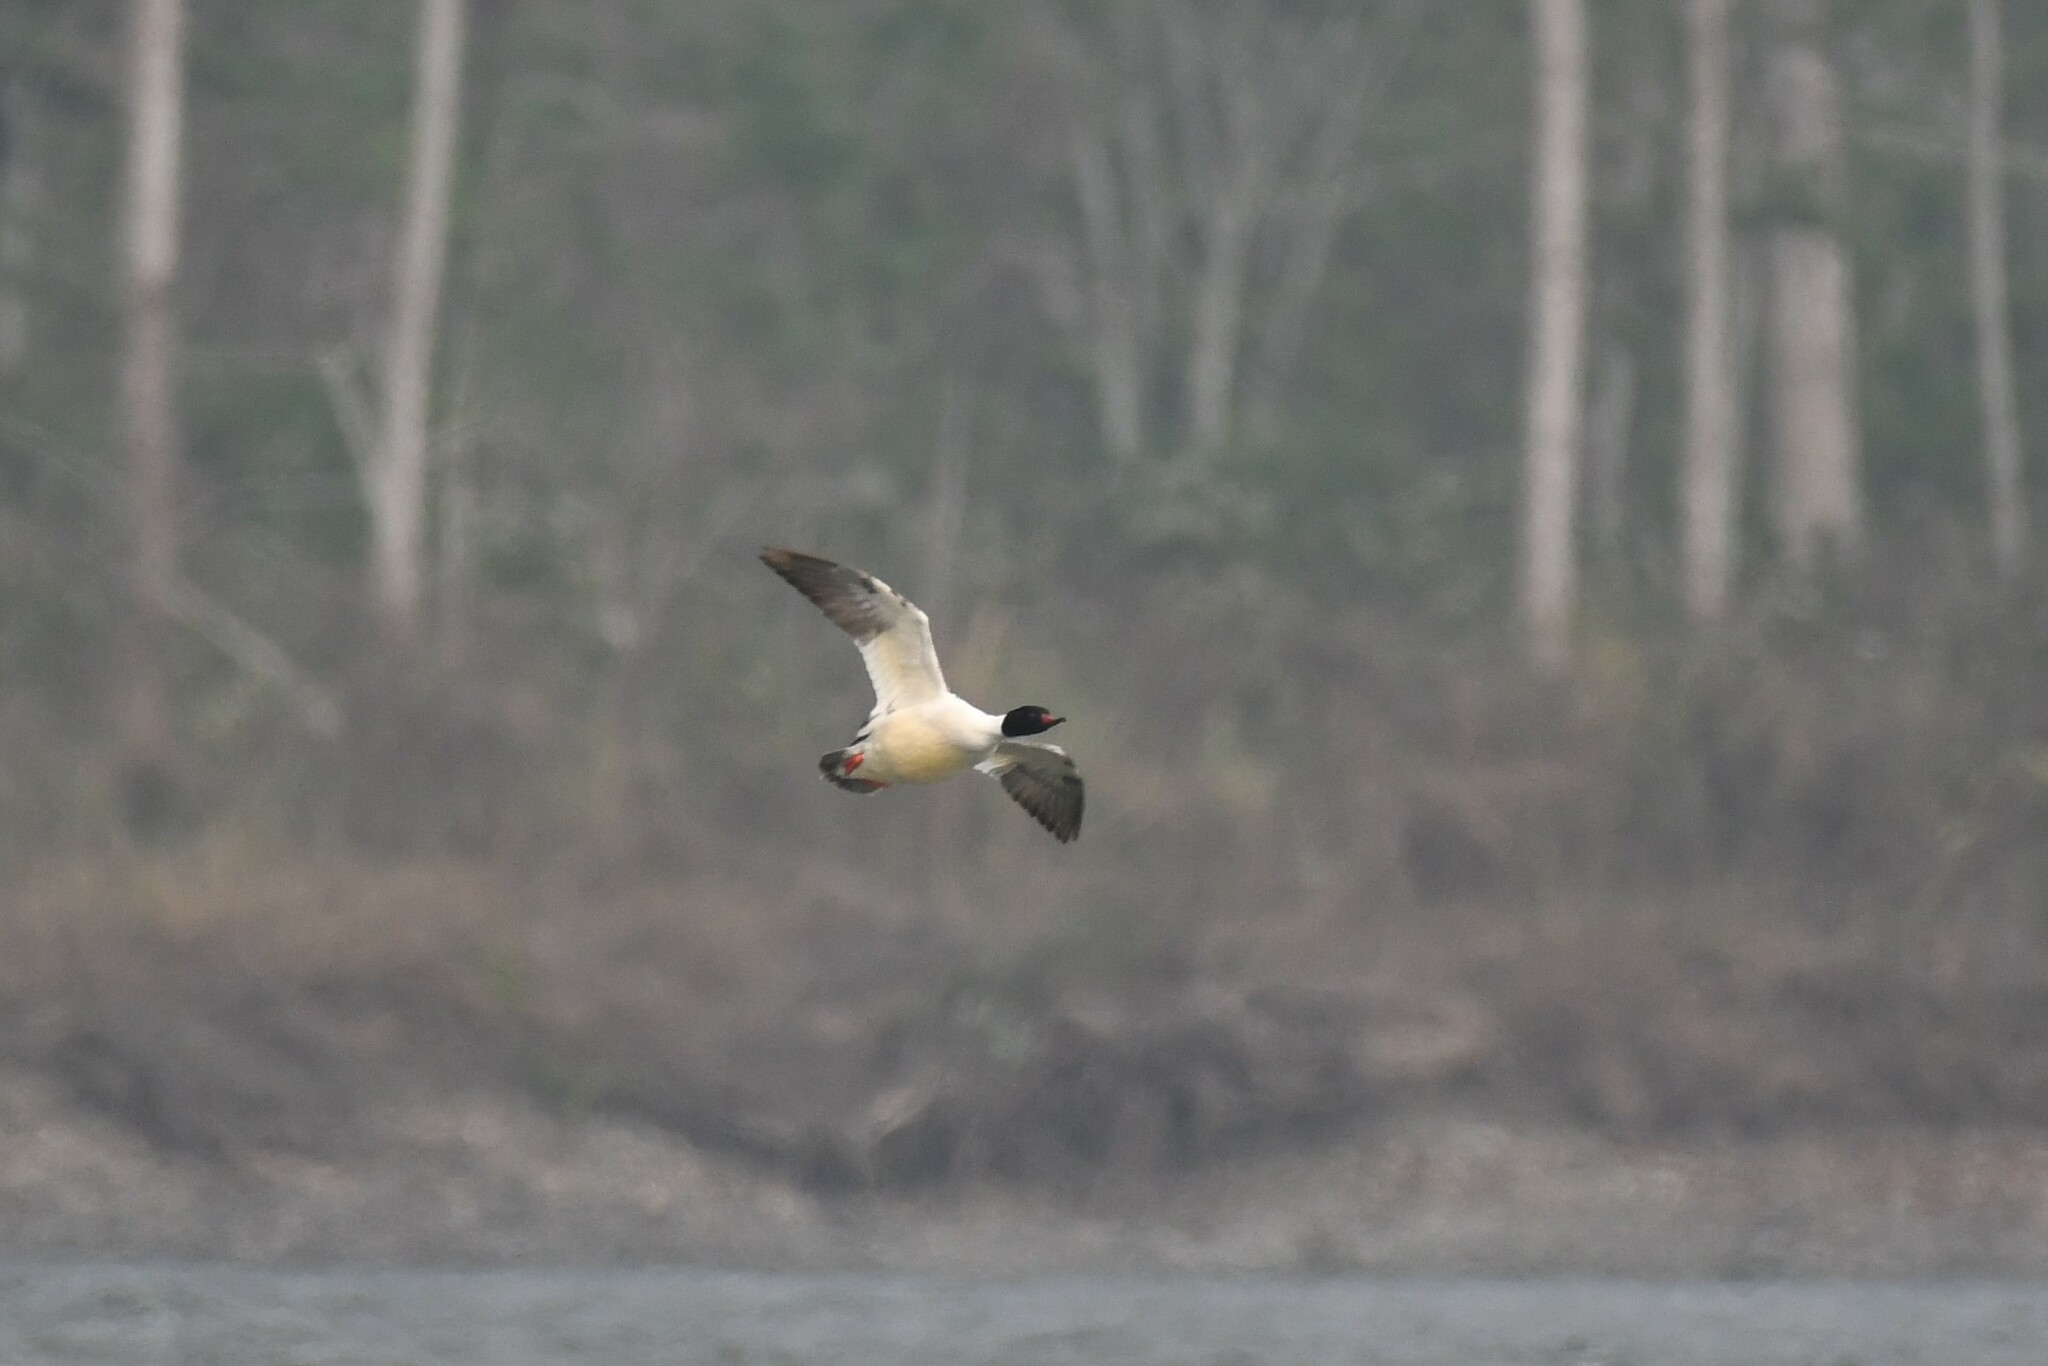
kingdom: Animalia
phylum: Chordata
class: Aves
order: Anseriformes
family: Anatidae
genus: Mergus
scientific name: Mergus merganser
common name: Common merganser
